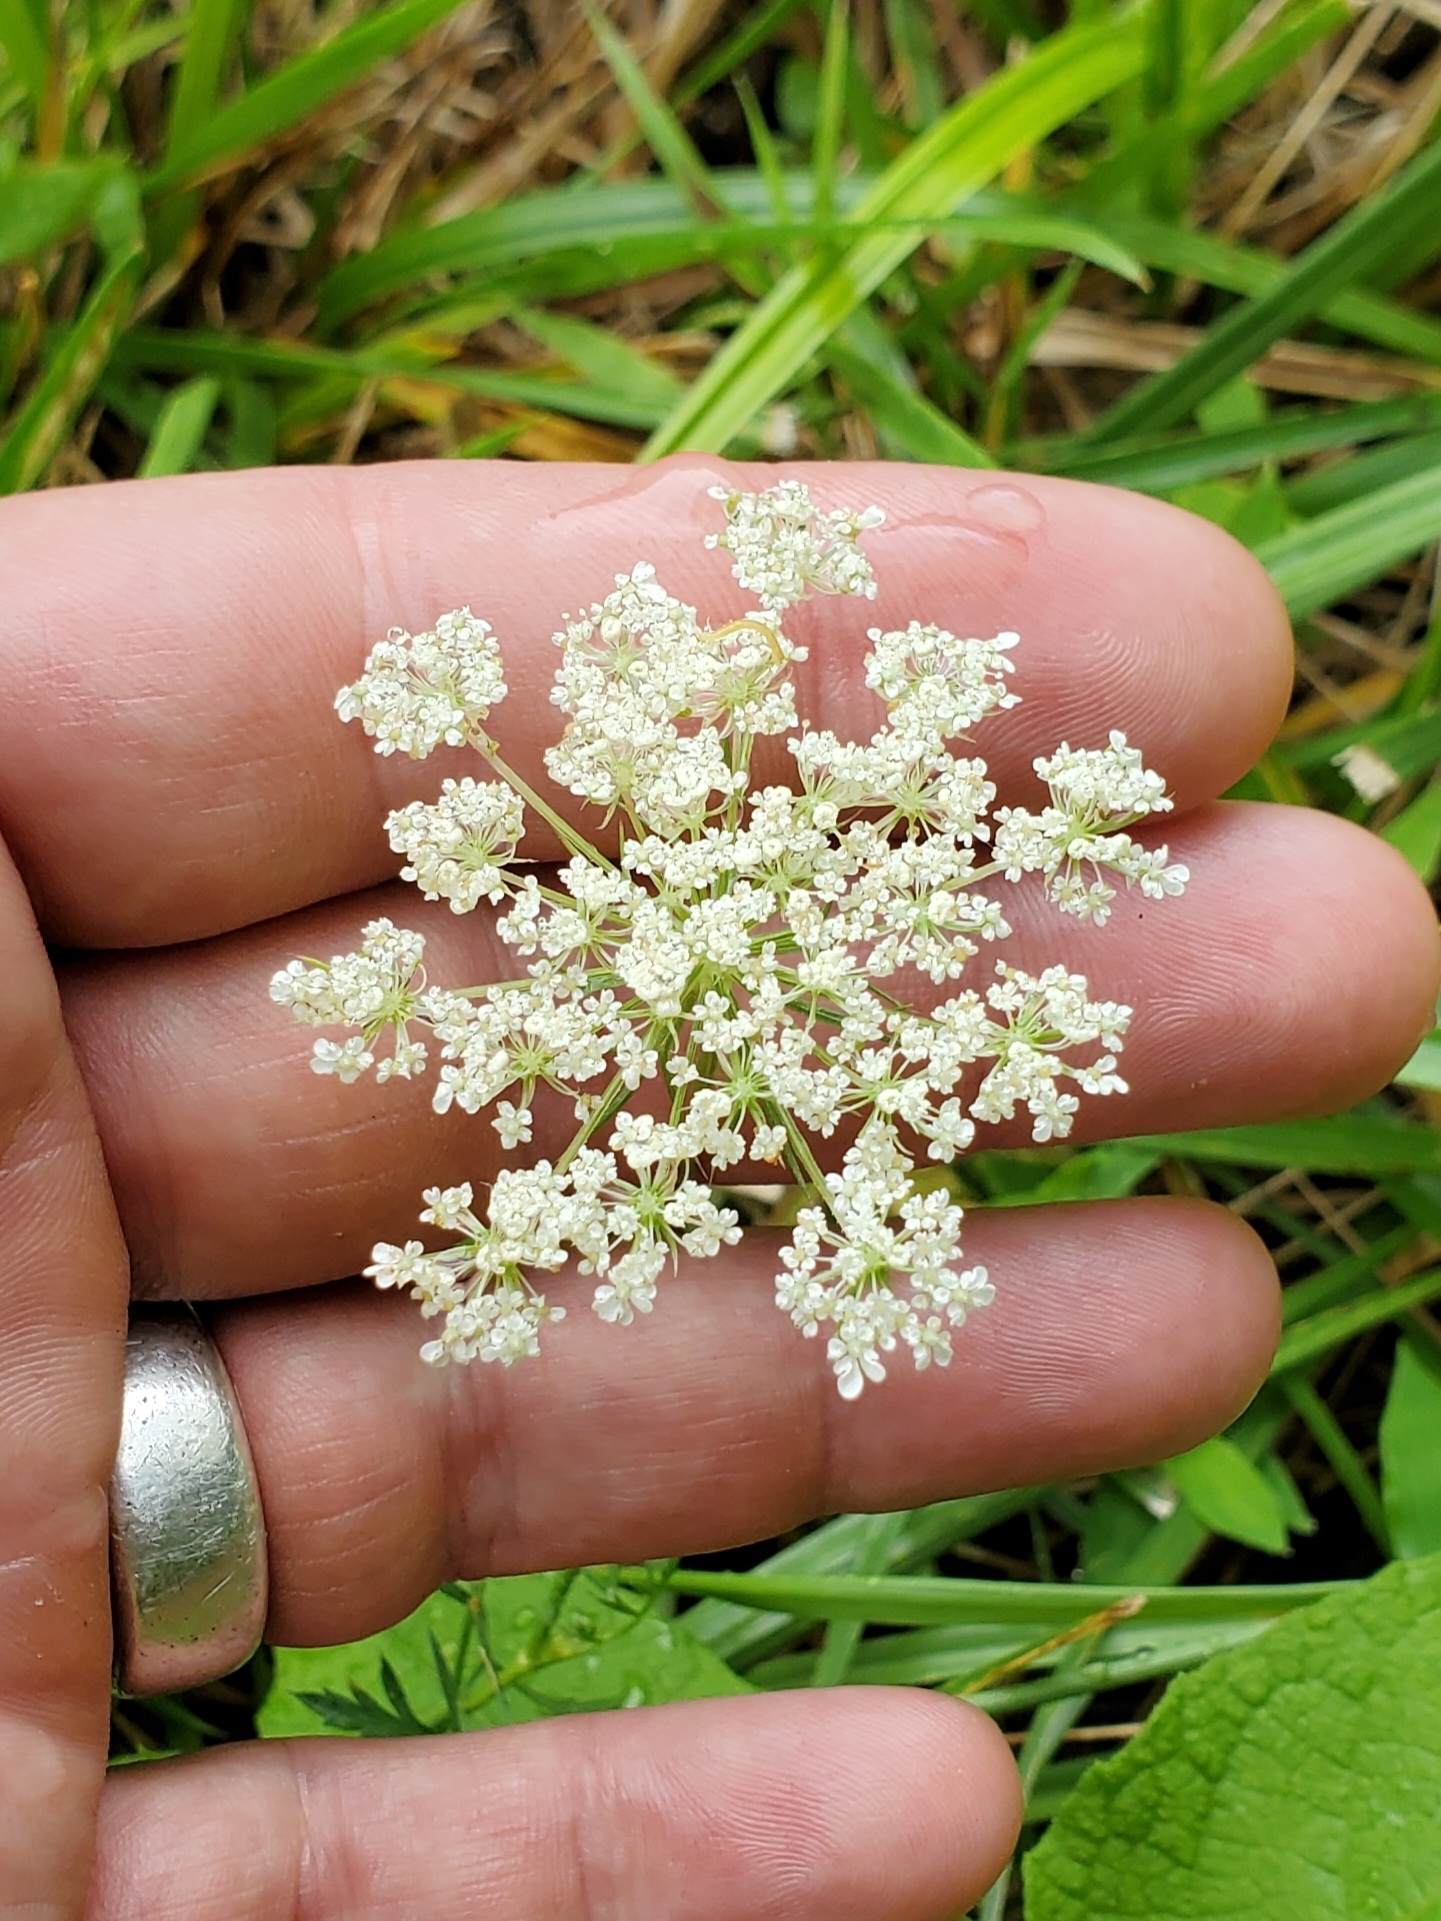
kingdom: Plantae
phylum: Tracheophyta
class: Magnoliopsida
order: Apiales
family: Apiaceae
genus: Daucus
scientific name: Daucus carota
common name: Wild carrot
